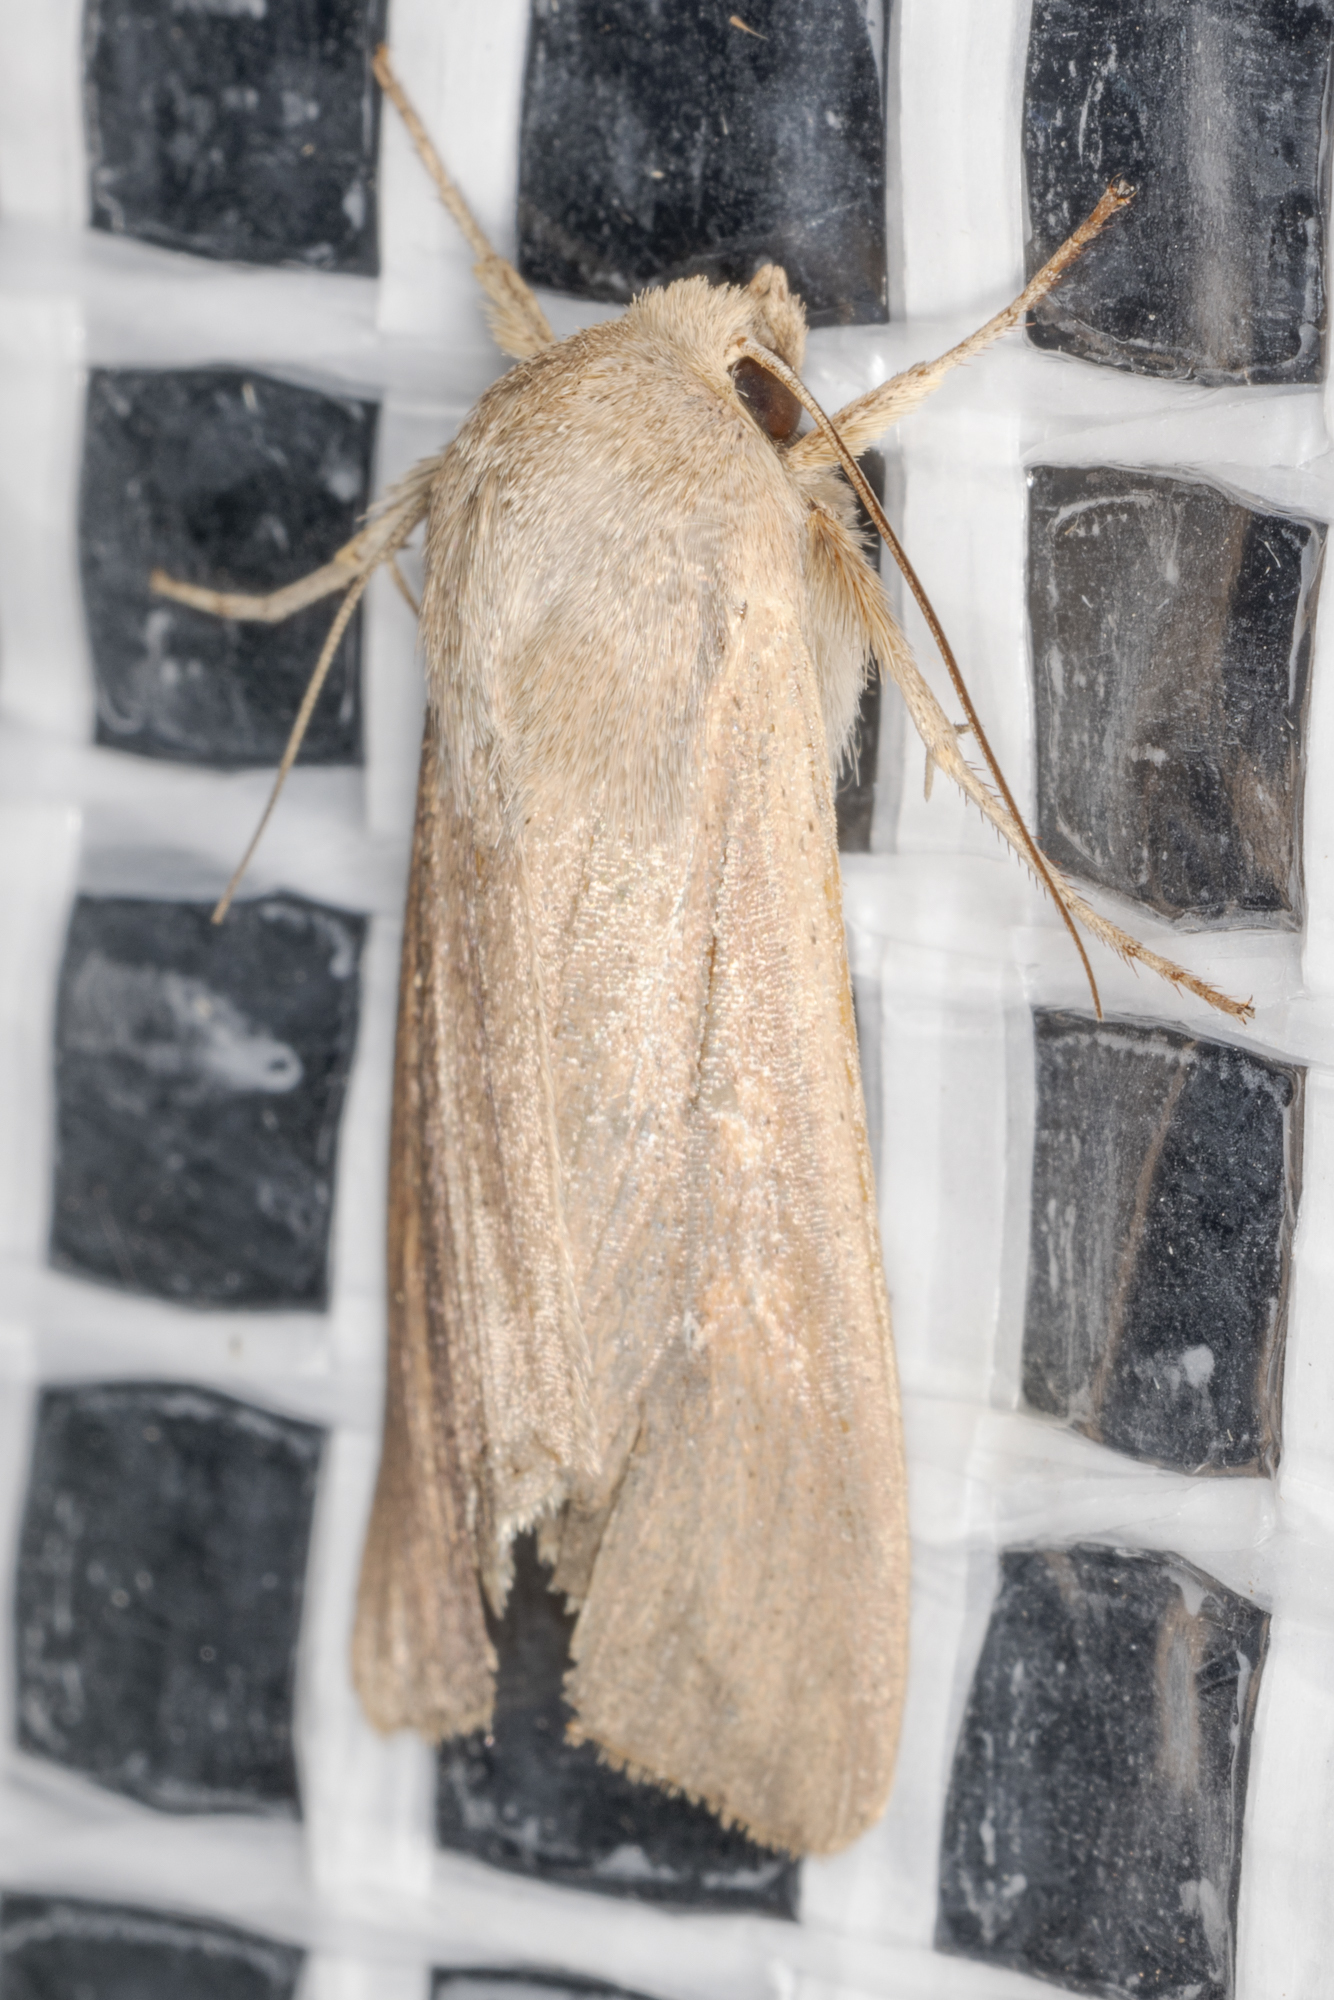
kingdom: Animalia
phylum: Arthropoda
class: Insecta
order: Lepidoptera
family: Noctuidae
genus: Mythimna
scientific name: Mythimna unipuncta
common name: White-speck
